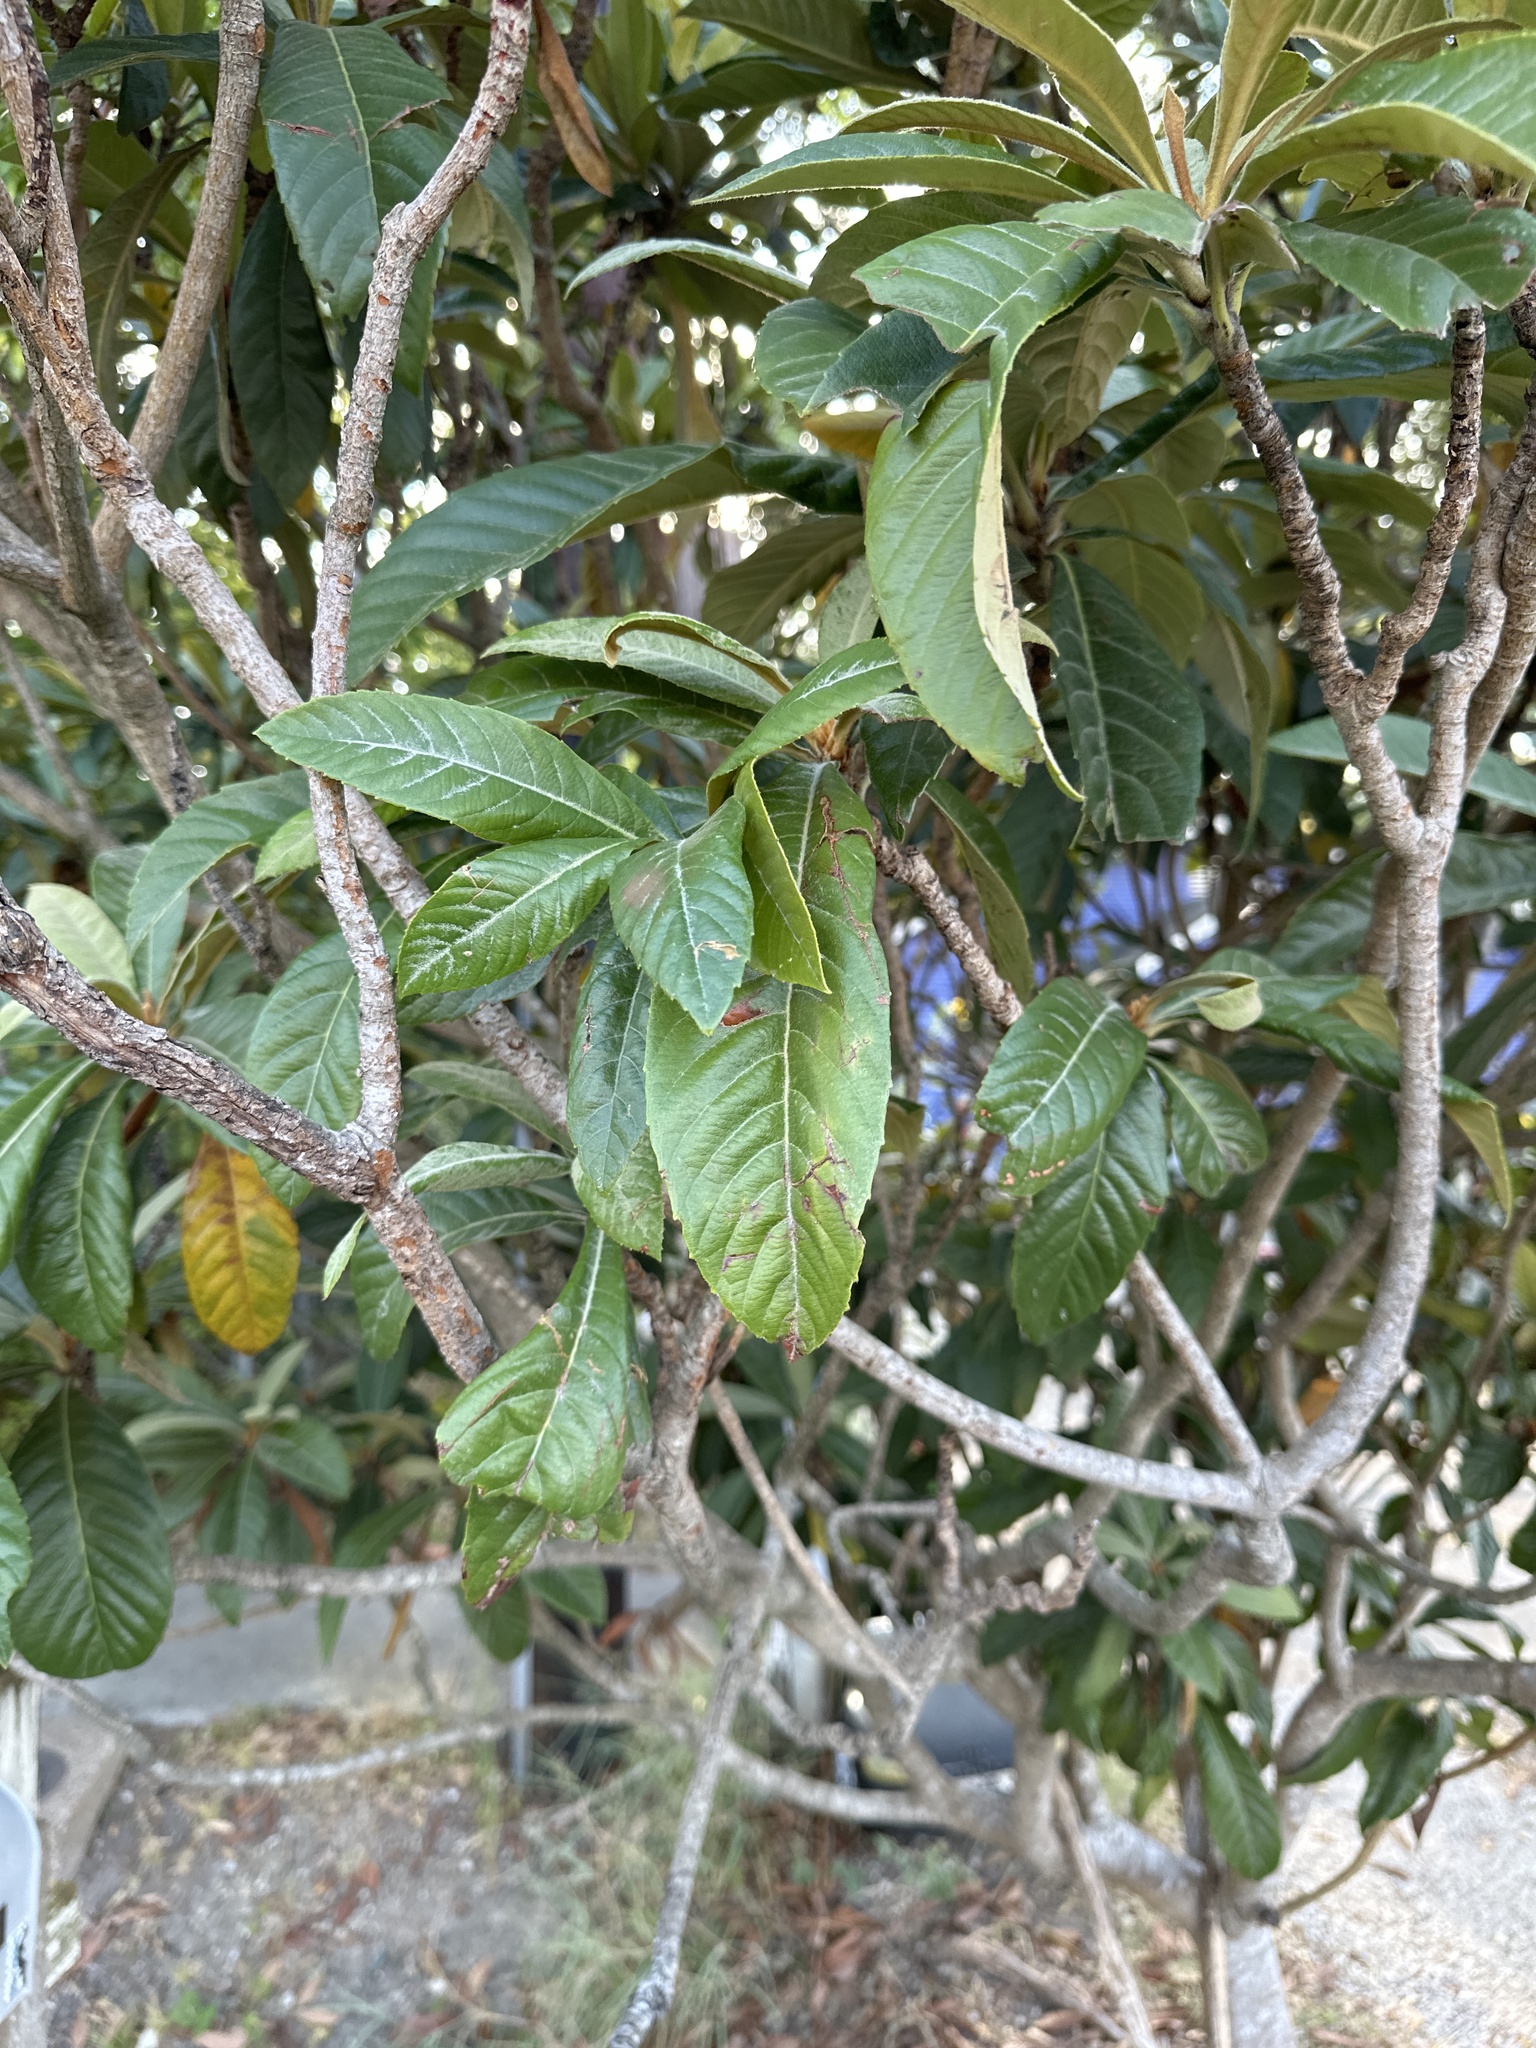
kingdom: Plantae
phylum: Tracheophyta
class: Magnoliopsida
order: Rosales
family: Rosaceae
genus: Rhaphiolepis
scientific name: Rhaphiolepis bibas
